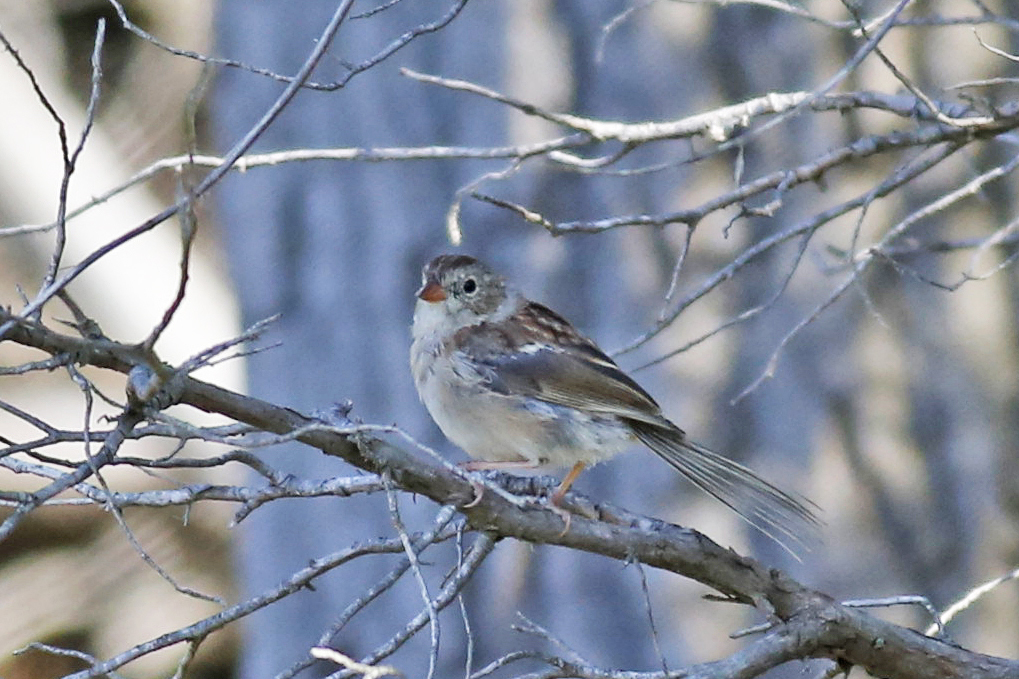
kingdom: Animalia
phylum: Chordata
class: Aves
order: Passeriformes
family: Passerellidae
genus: Spizella
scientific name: Spizella pusilla
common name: Field sparrow
